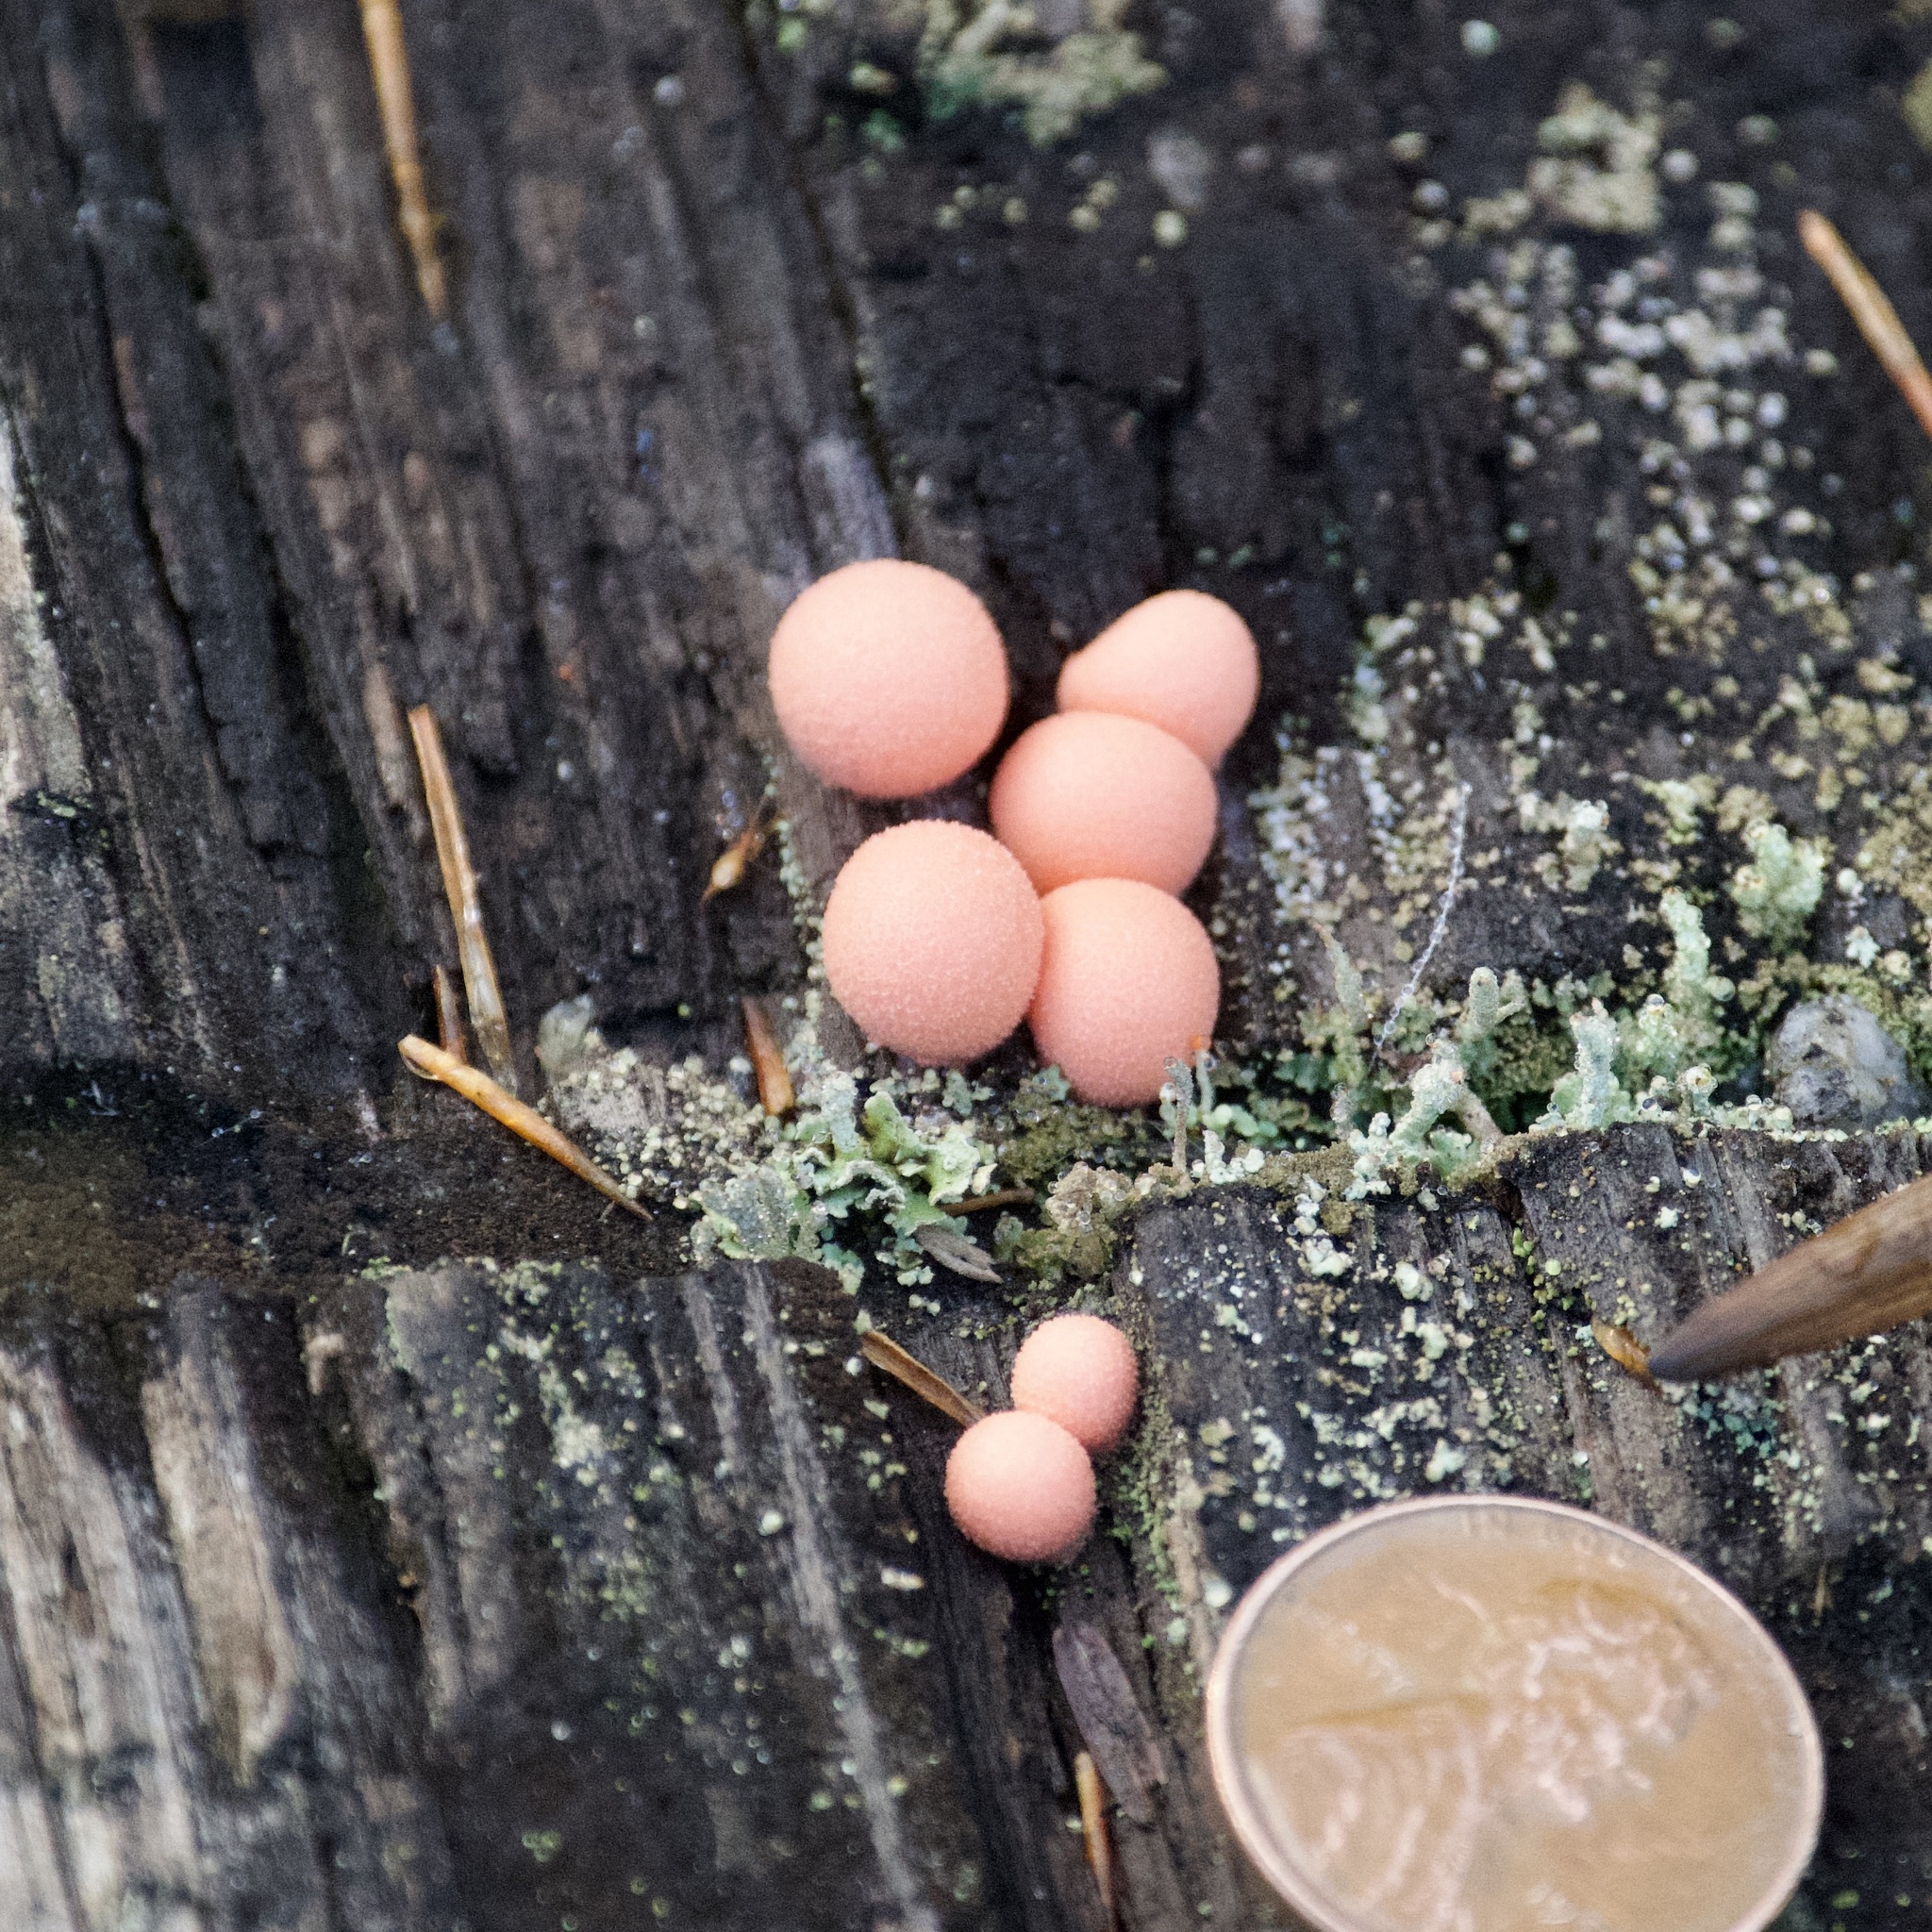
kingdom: Protozoa
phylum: Mycetozoa
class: Myxomycetes
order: Cribrariales
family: Tubiferaceae
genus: Lycogala
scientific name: Lycogala epidendrum
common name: Wolf's milk
